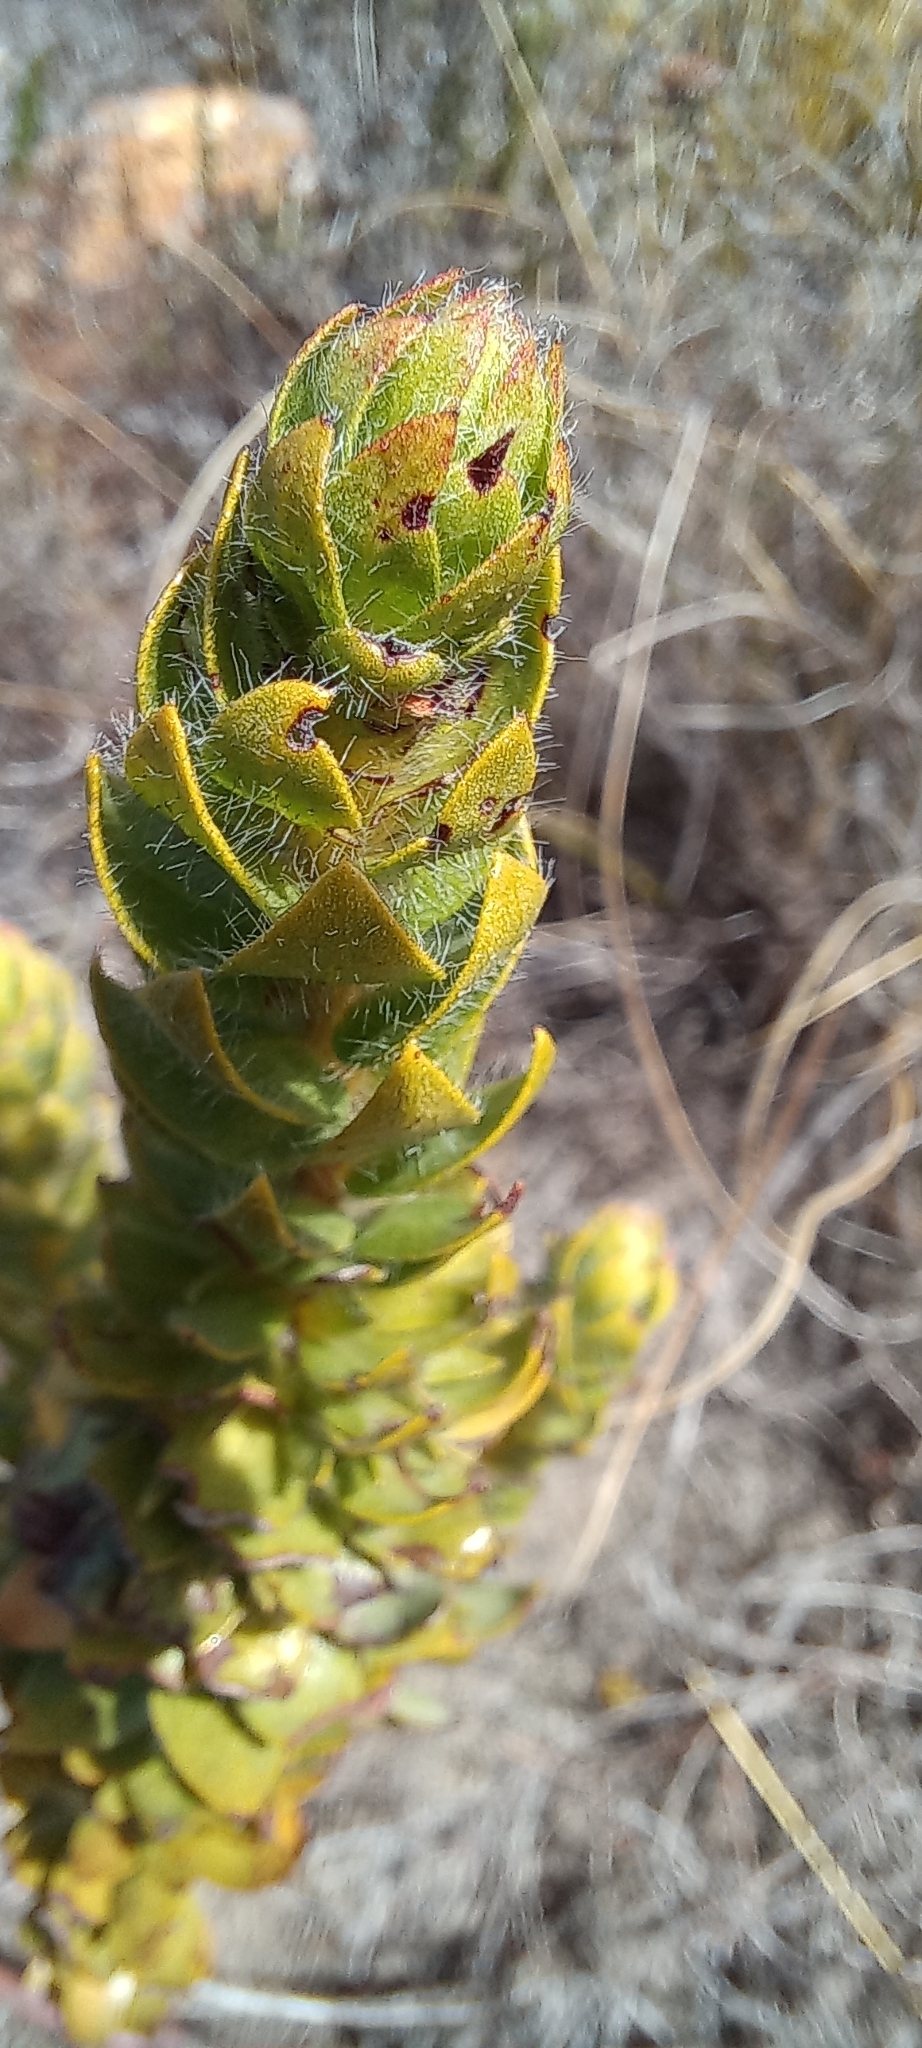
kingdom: Plantae
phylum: Tracheophyta
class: Magnoliopsida
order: Malvales
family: Thymelaeaceae
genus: Gnidia
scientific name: Gnidia ornata
